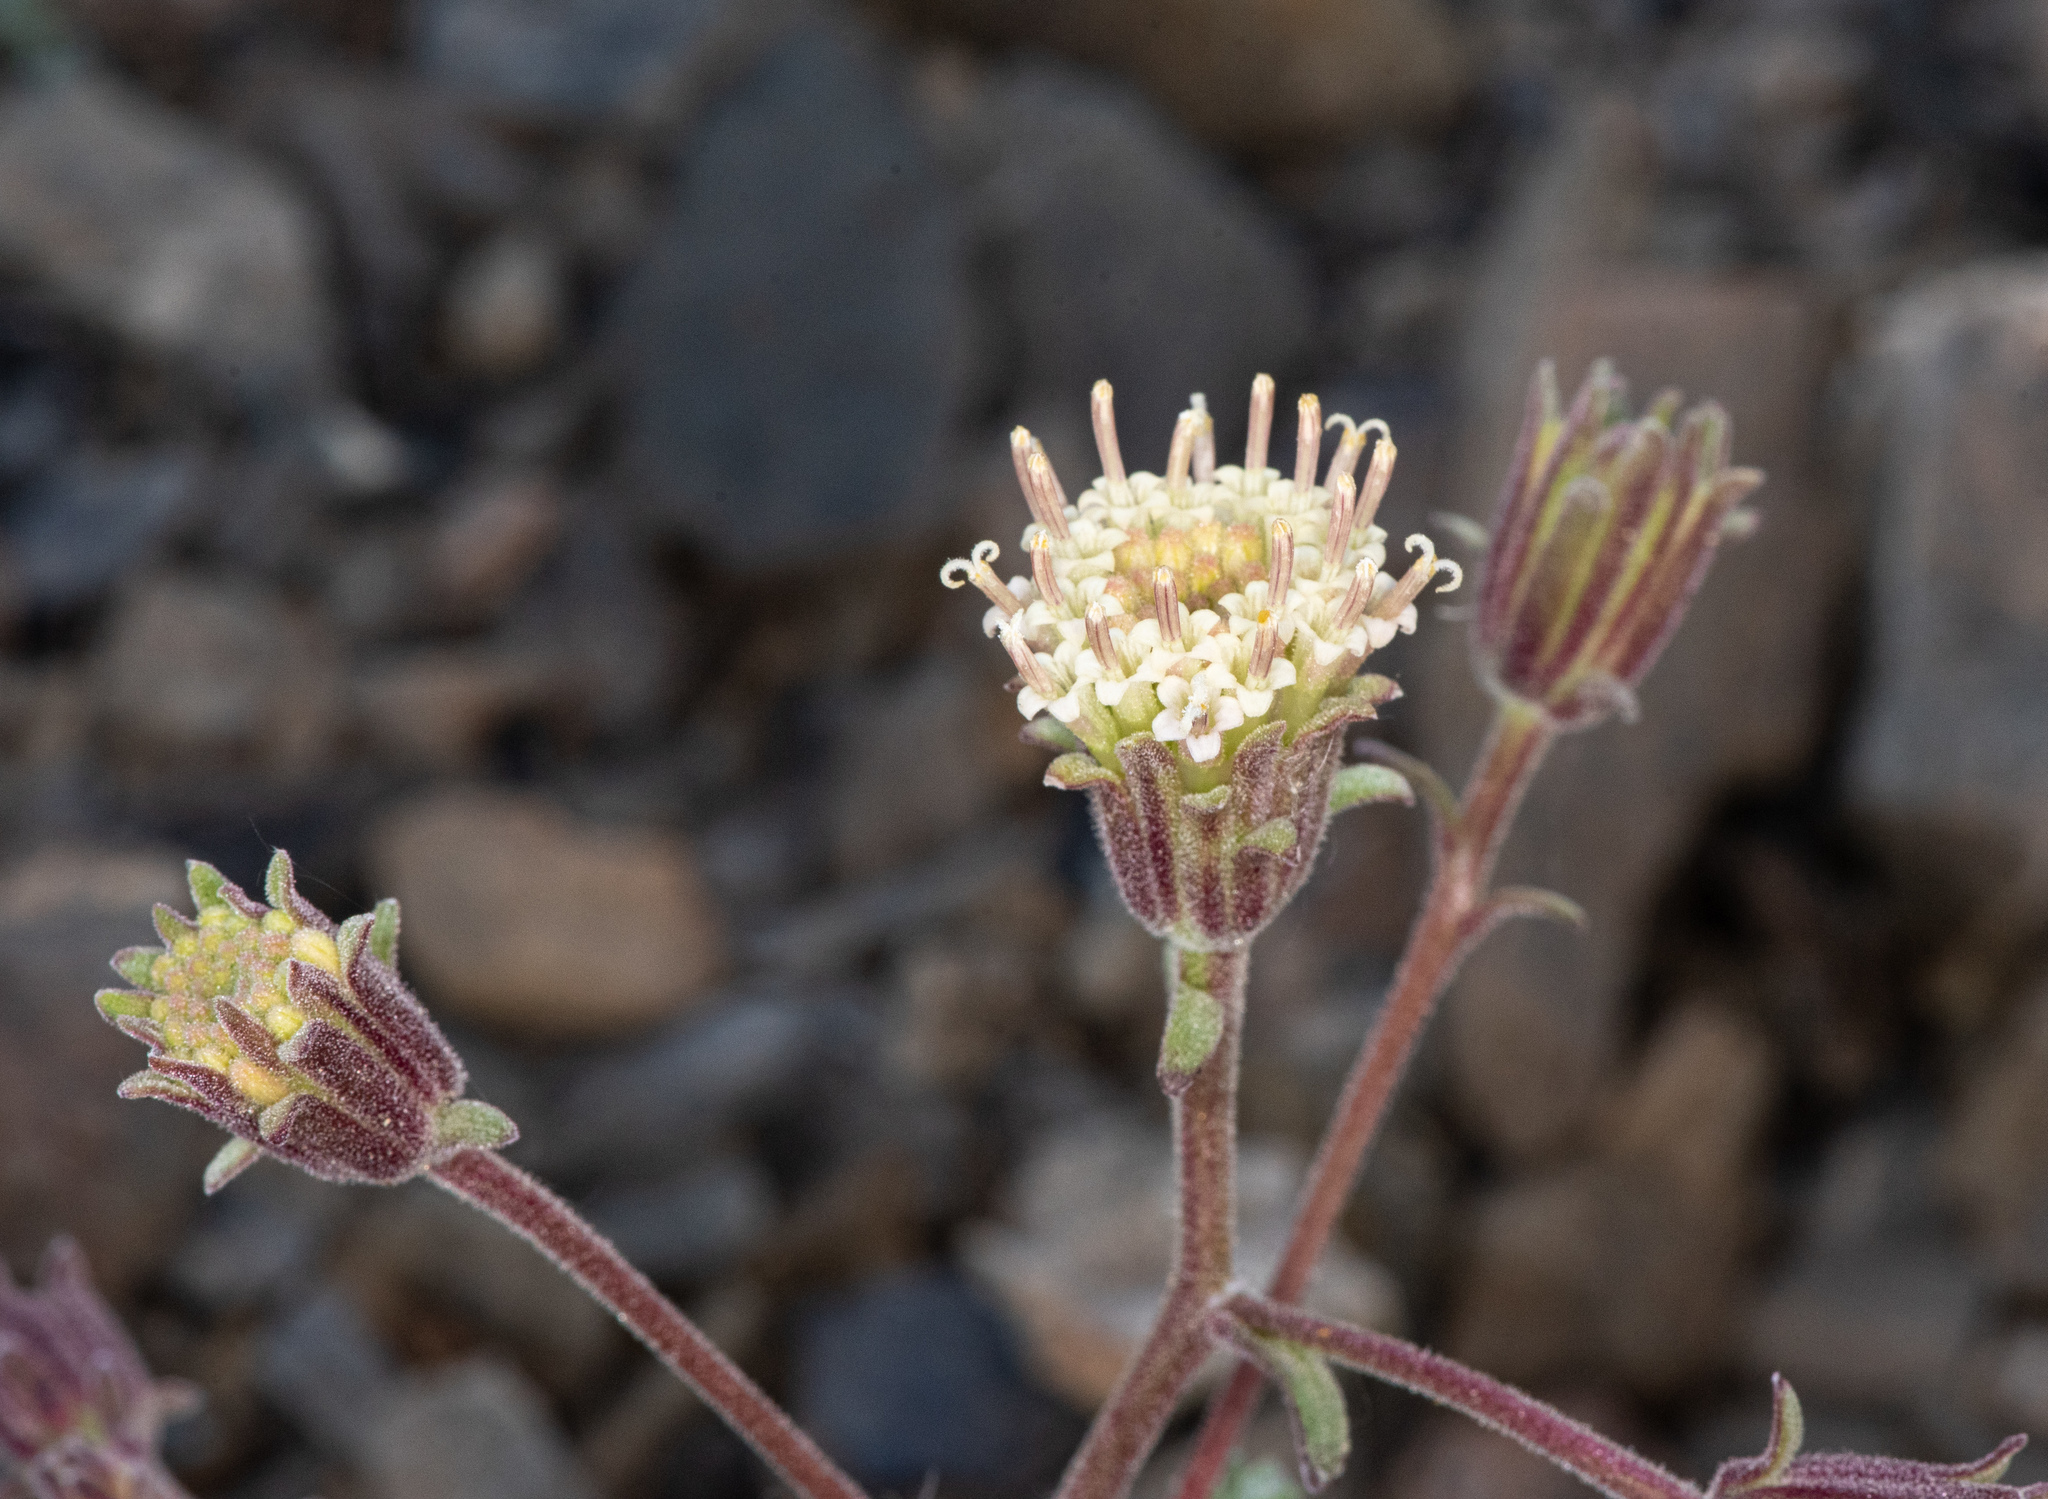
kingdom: Plantae
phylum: Tracheophyta
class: Magnoliopsida
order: Asterales
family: Asteraceae
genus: Chaenactis
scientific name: Chaenactis douglasii
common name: Hoary pincushion
